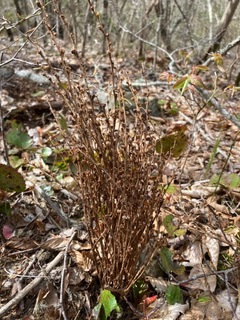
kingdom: Plantae
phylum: Tracheophyta
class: Magnoliopsida
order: Lamiales
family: Orobanchaceae
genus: Epifagus
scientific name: Epifagus virginiana
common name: Beechdrops
